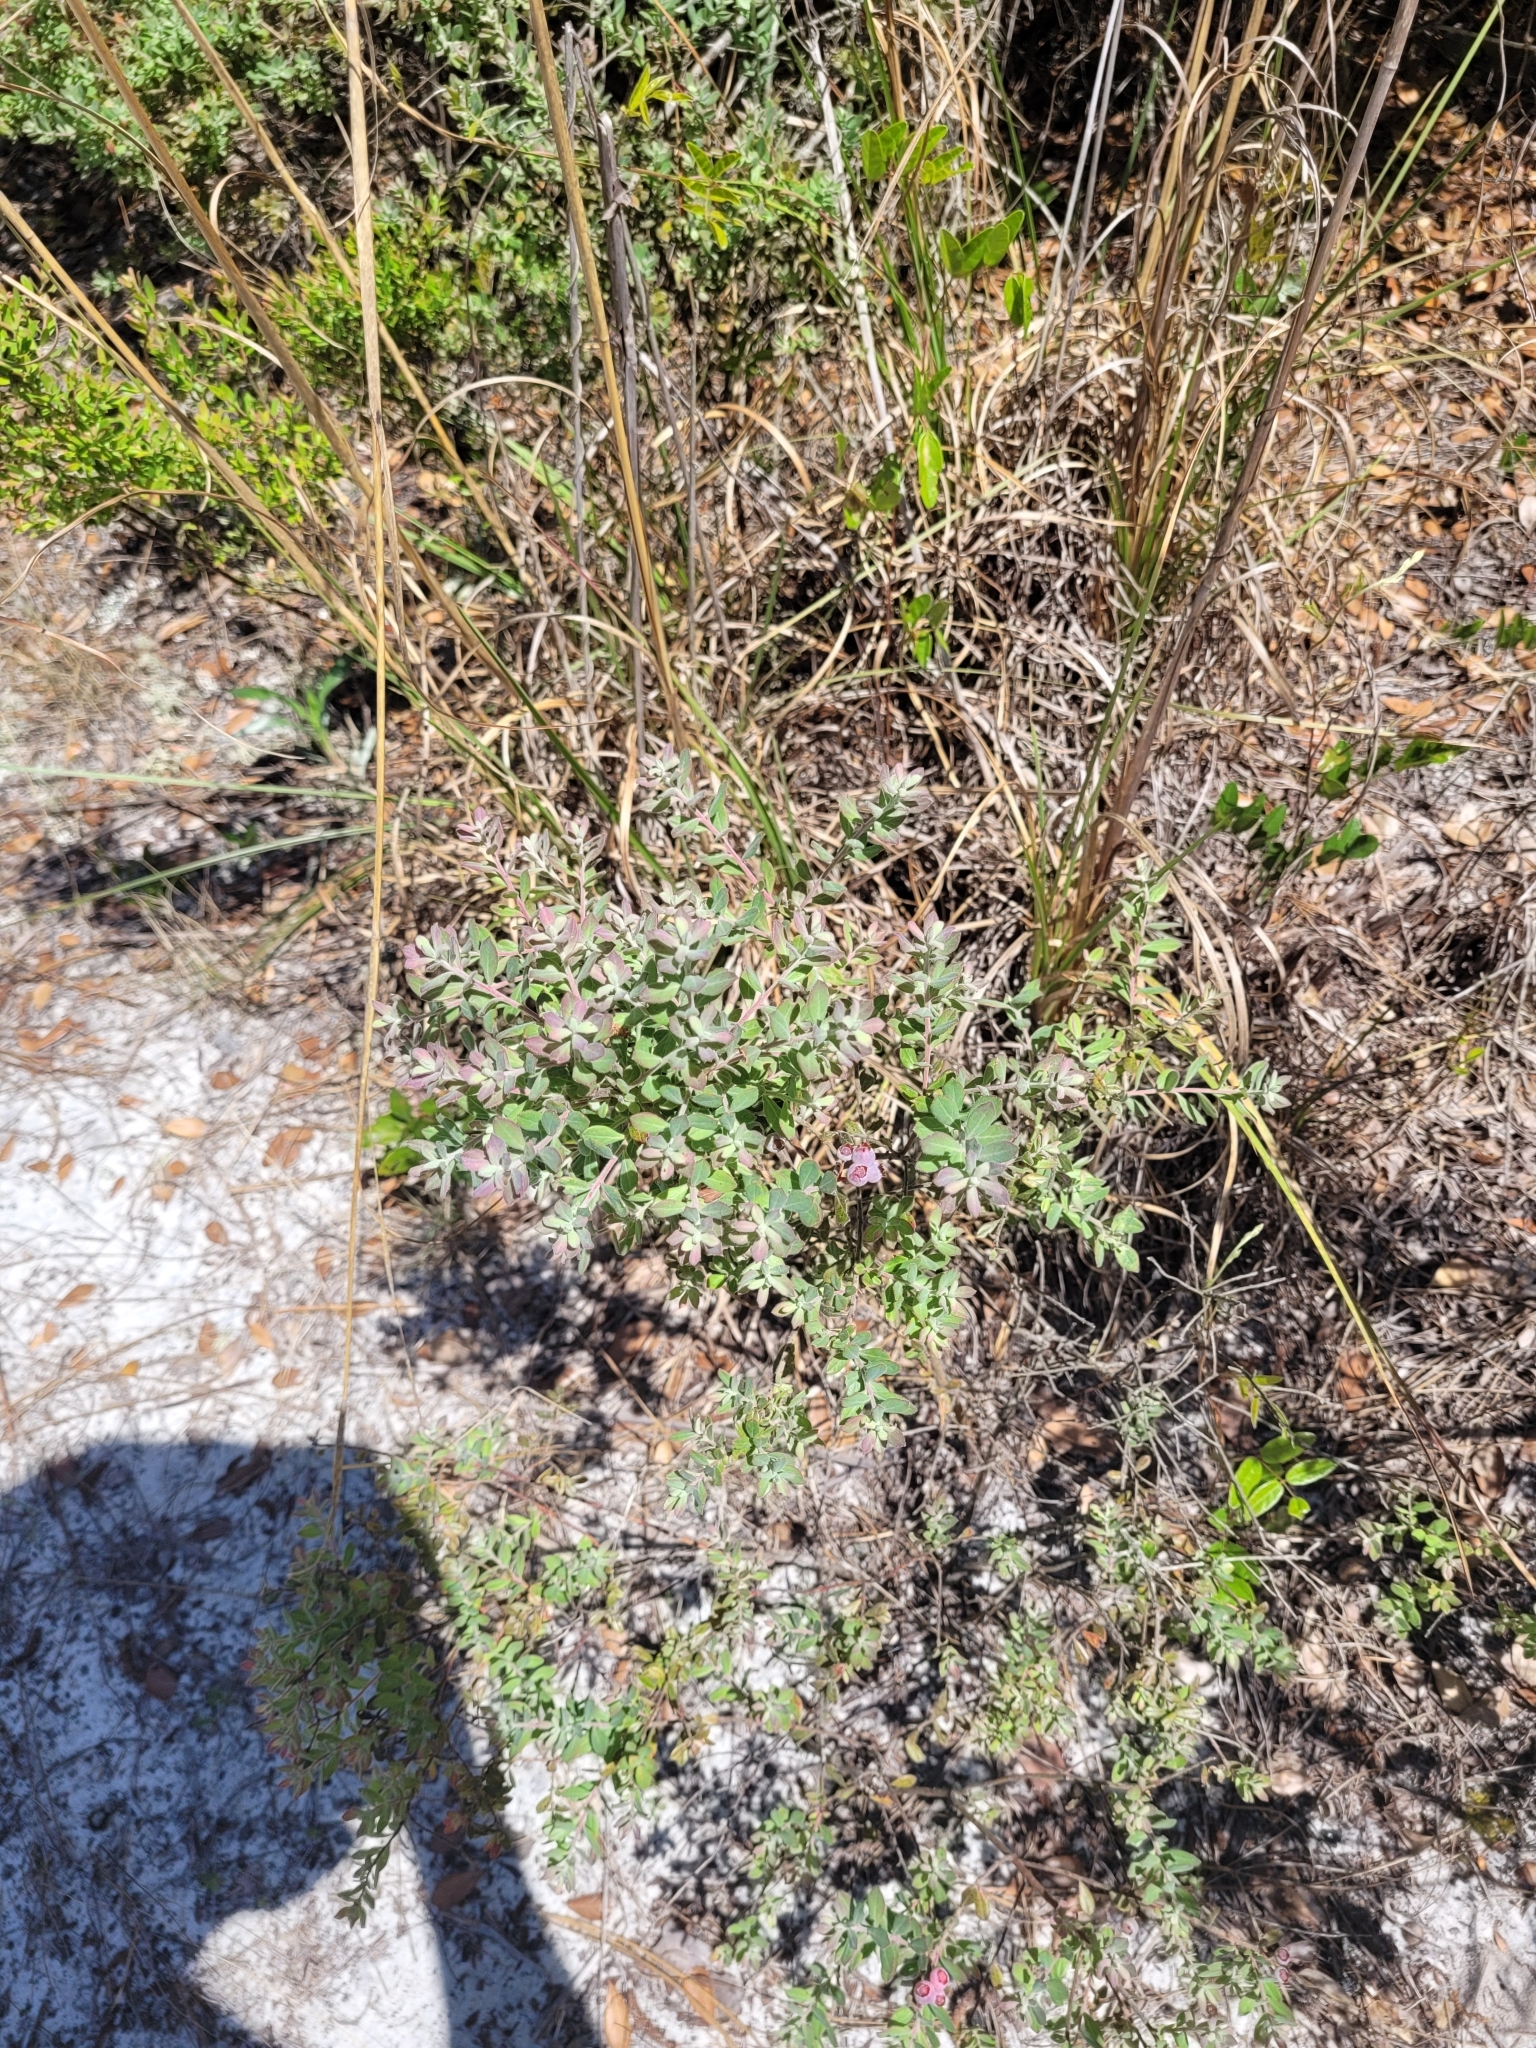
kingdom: Plantae
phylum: Tracheophyta
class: Magnoliopsida
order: Ericales
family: Ericaceae
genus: Vaccinium
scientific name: Vaccinium darrowii
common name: Darrow's blueberry
